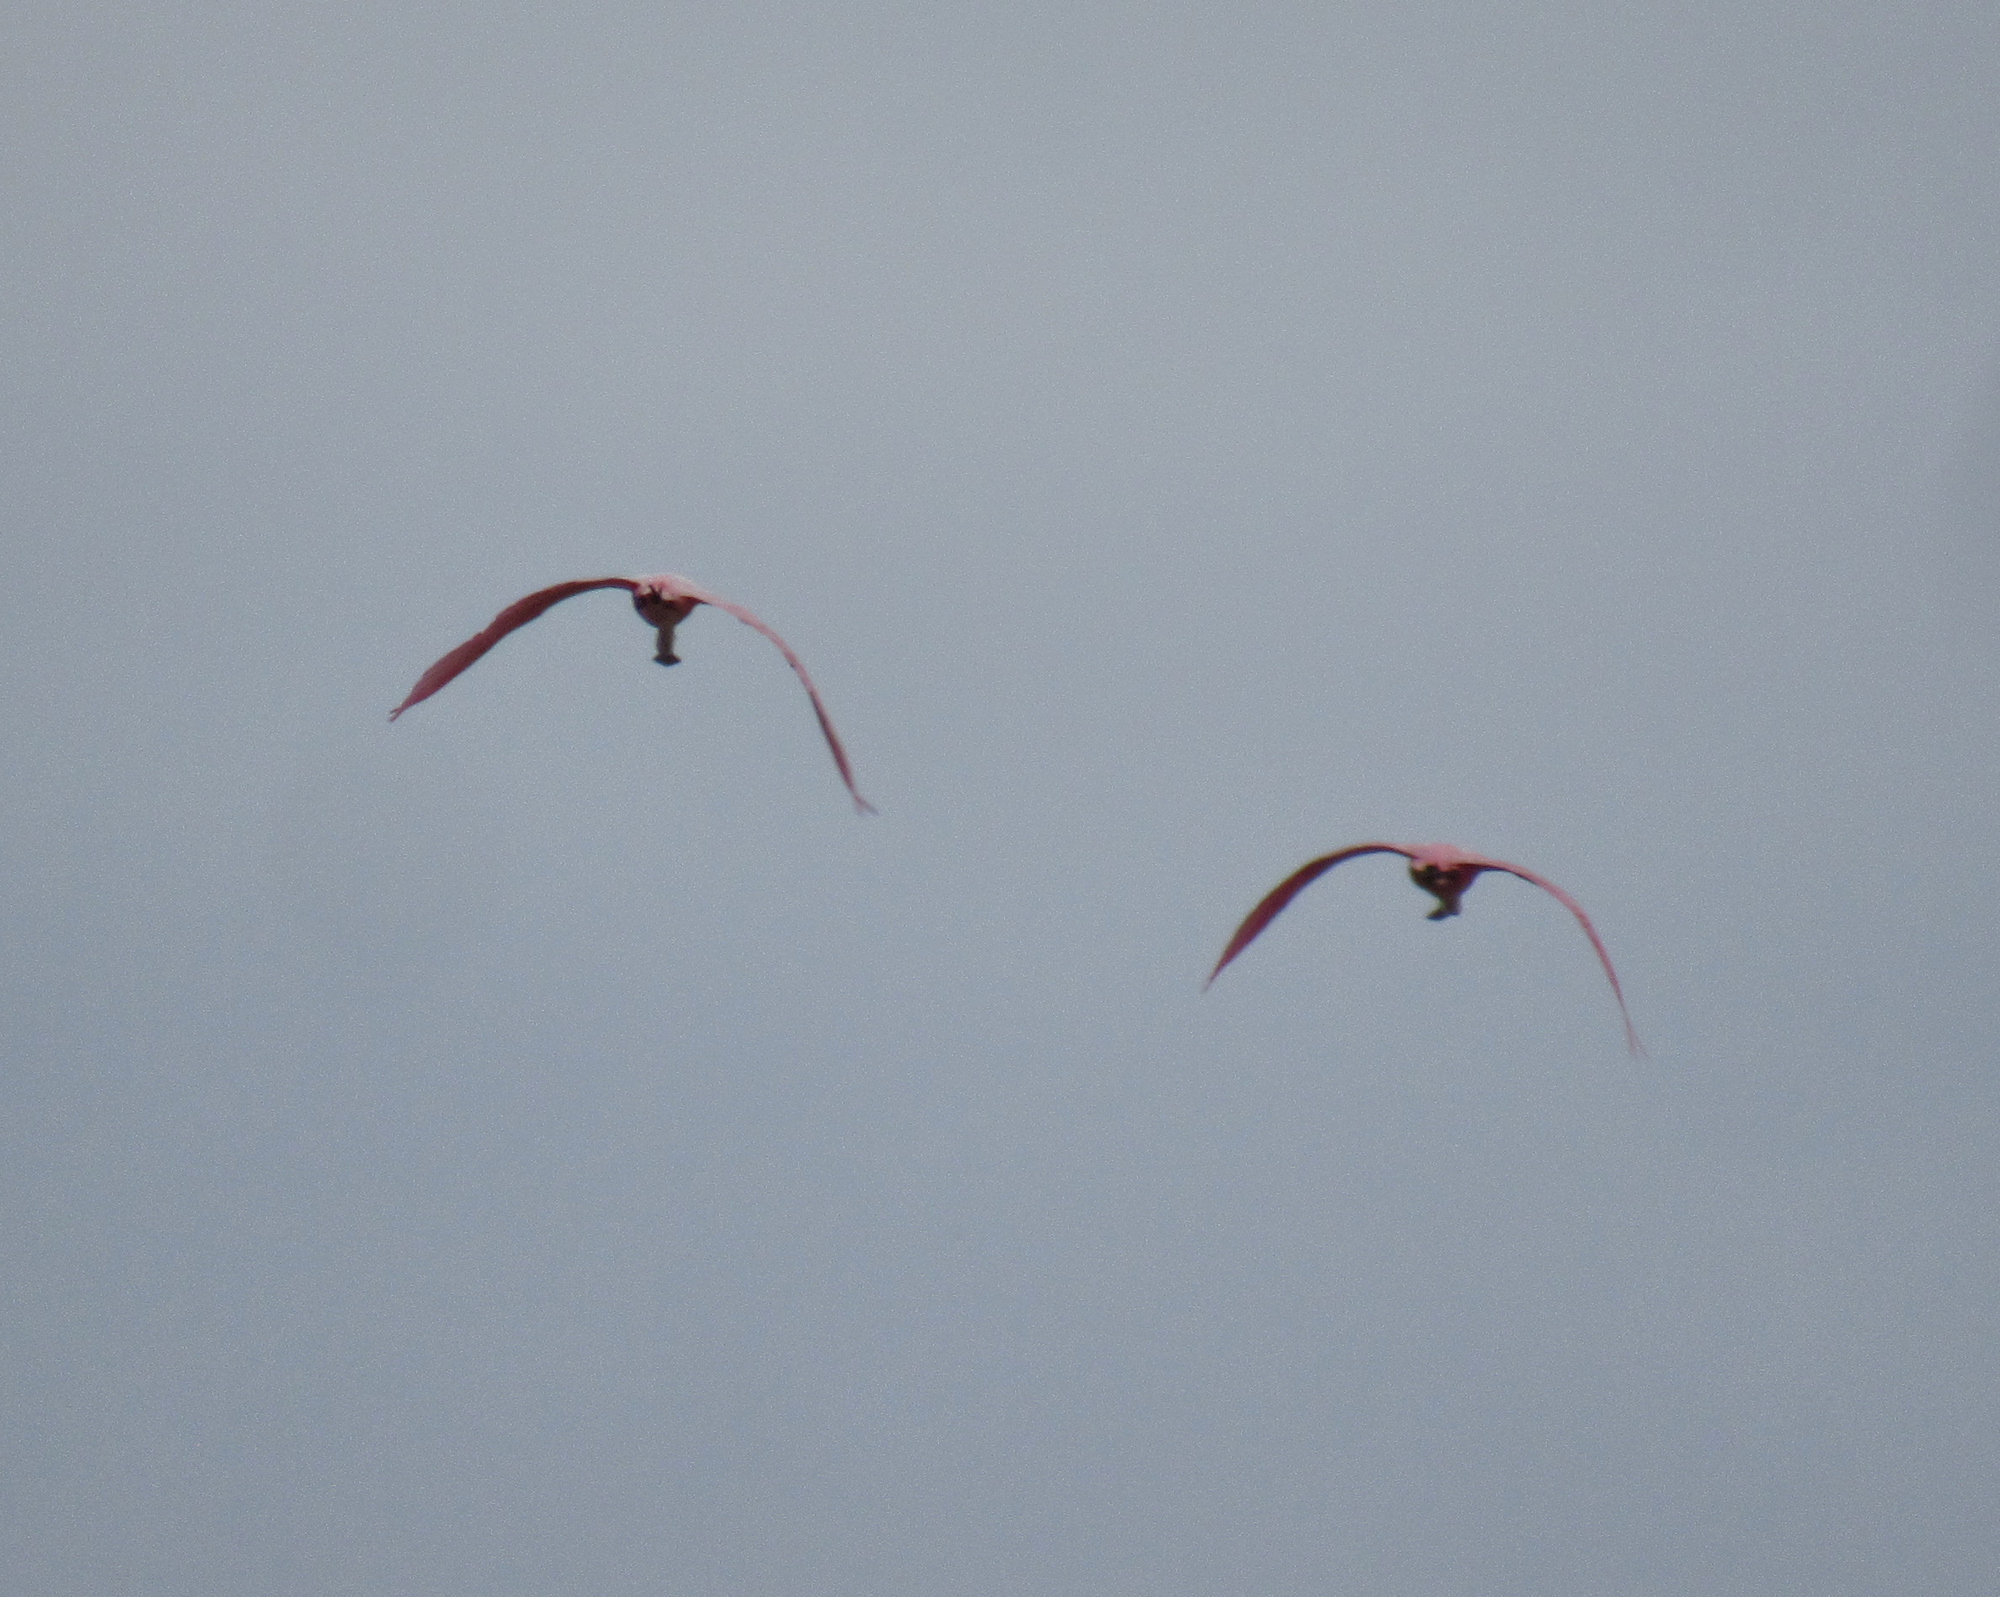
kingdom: Animalia
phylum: Chordata
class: Aves
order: Pelecaniformes
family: Threskiornithidae
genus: Platalea
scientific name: Platalea ajaja
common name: Roseate spoonbill
